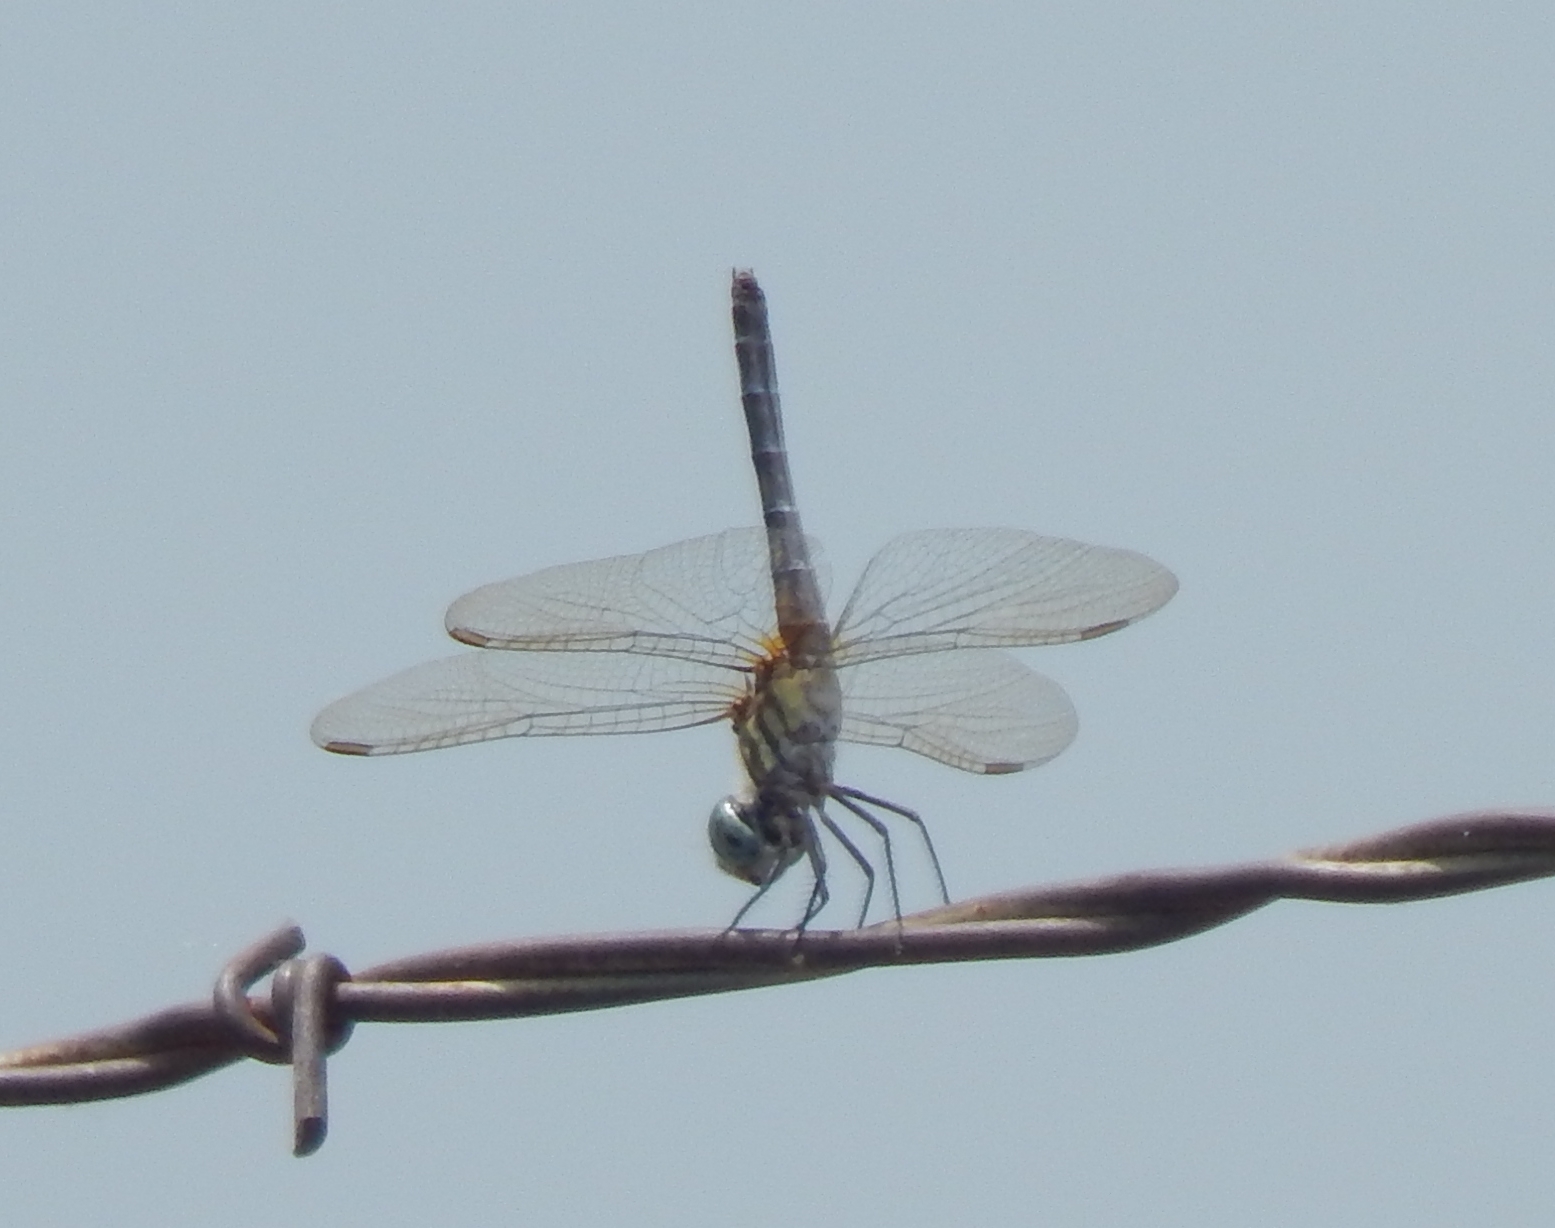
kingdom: Animalia
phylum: Arthropoda
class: Insecta
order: Odonata
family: Libellulidae
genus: Pachydiplax
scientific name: Pachydiplax longipennis
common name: Blue dasher
